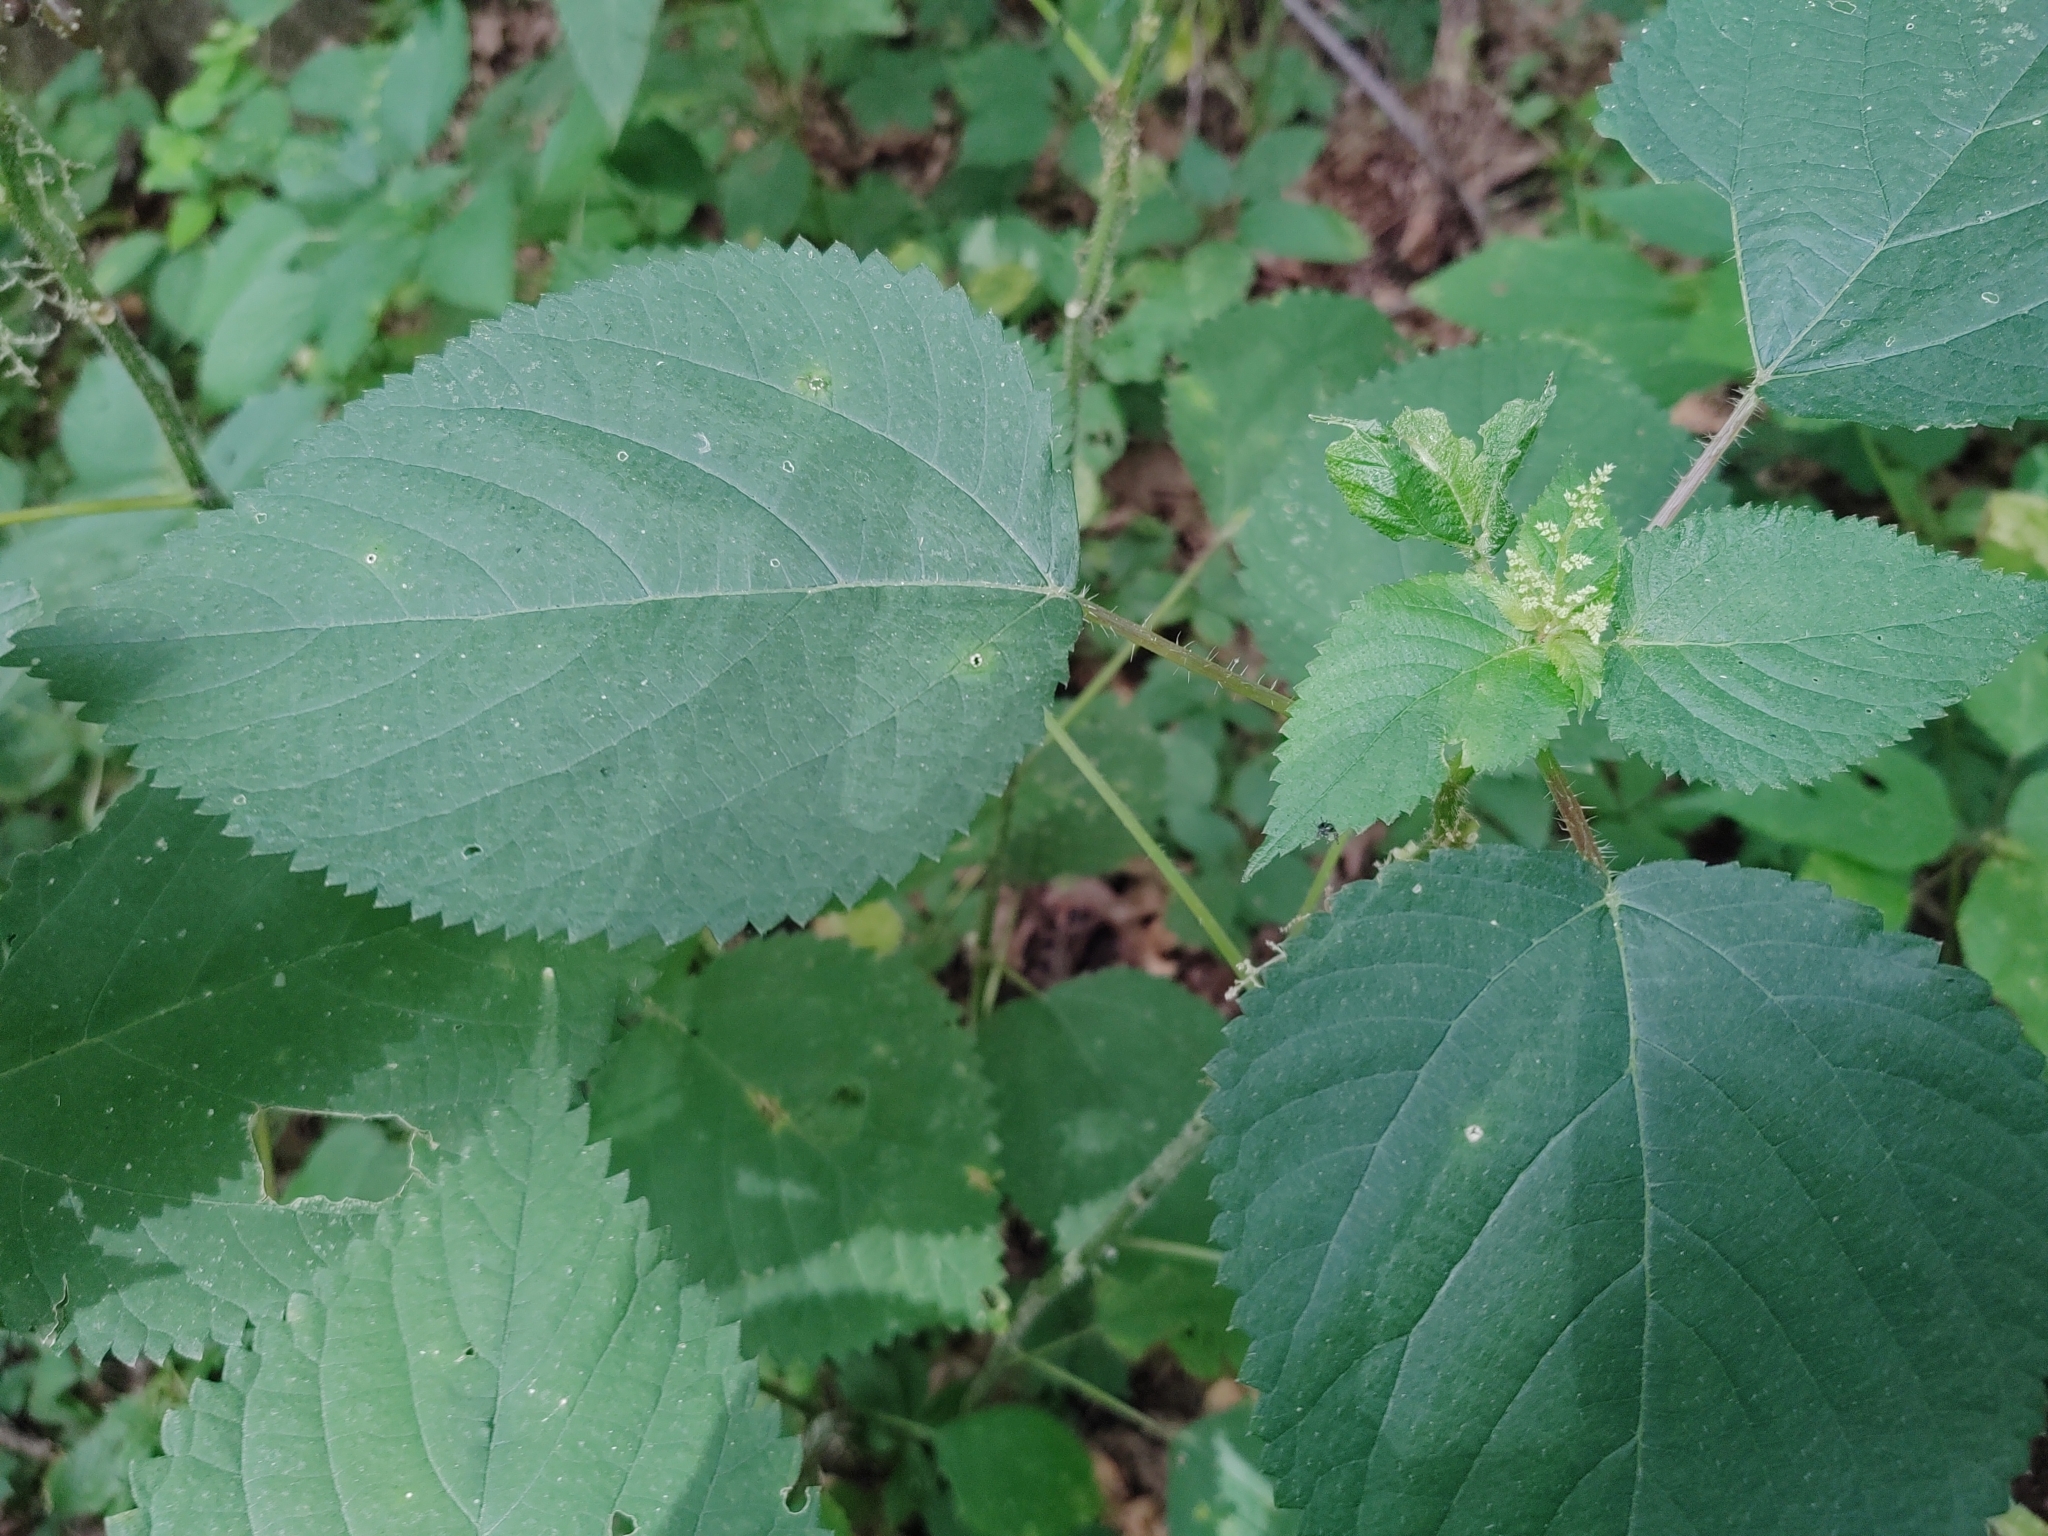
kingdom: Plantae
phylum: Tracheophyta
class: Magnoliopsida
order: Rosales
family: Urticaceae
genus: Laportea
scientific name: Laportea canadensis
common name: Canada nettle
